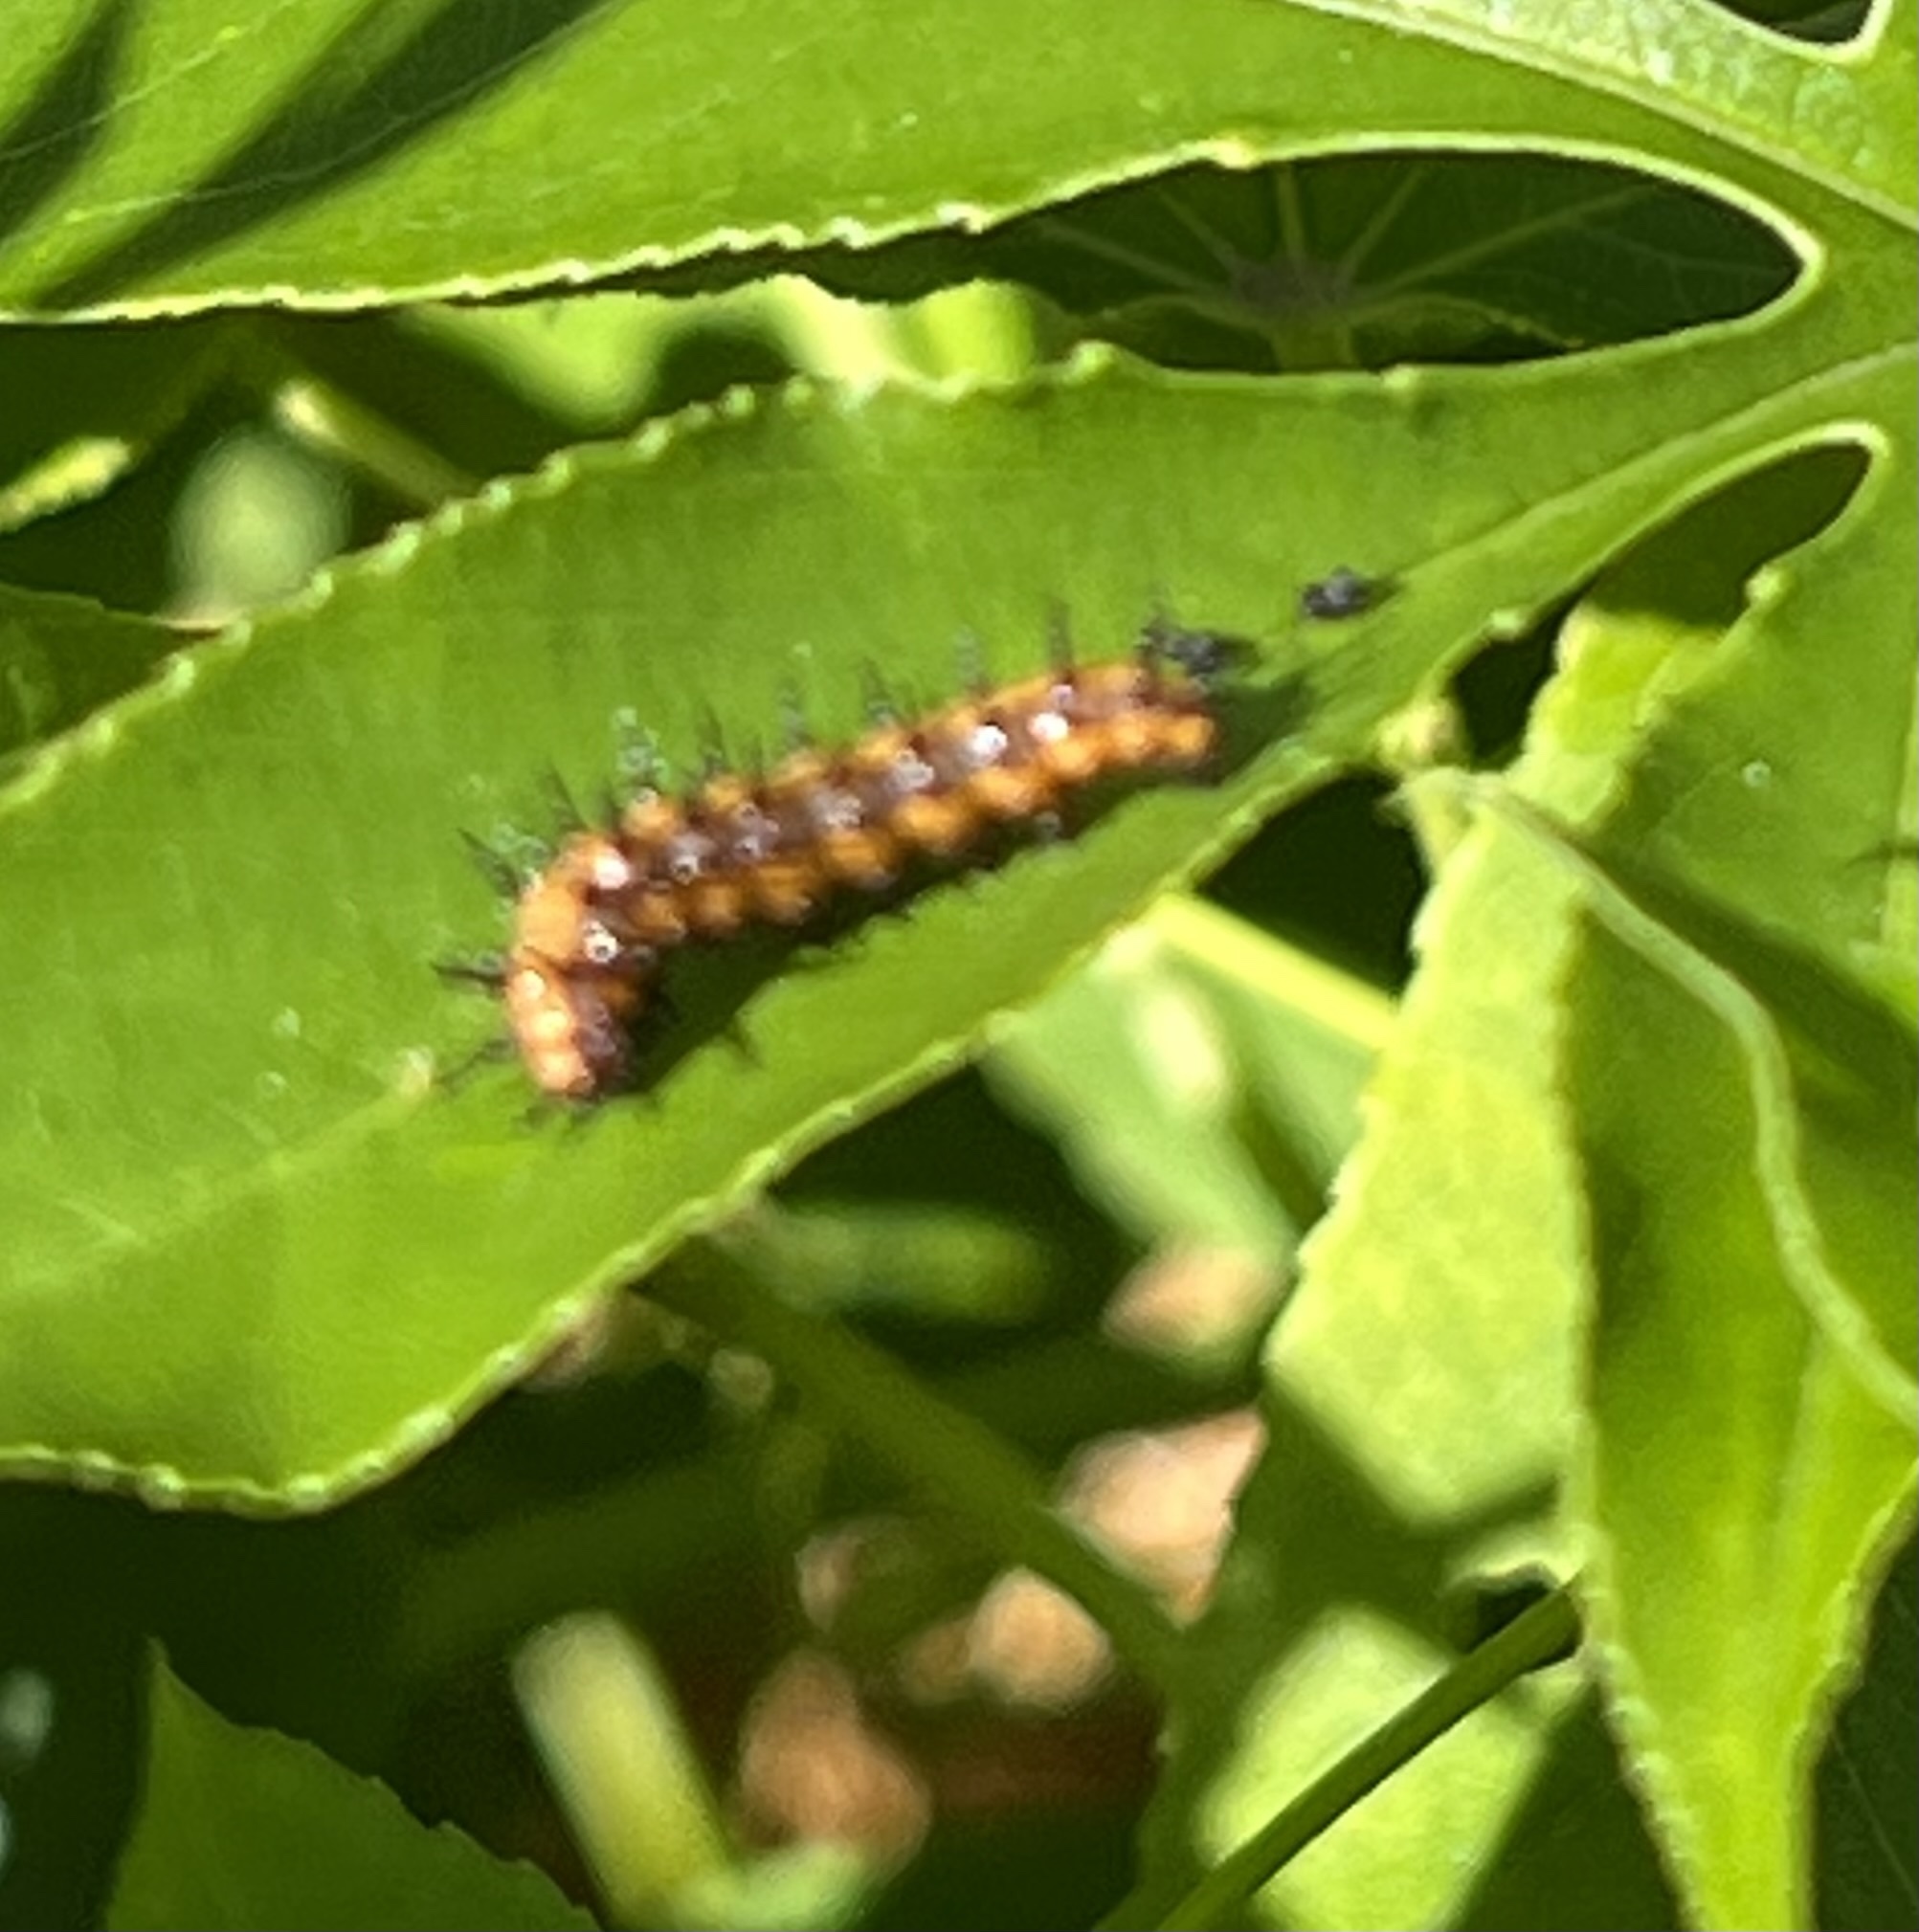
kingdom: Animalia
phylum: Arthropoda
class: Insecta
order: Lepidoptera
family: Nymphalidae
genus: Dione
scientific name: Dione vanillae
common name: Gulf fritillary
